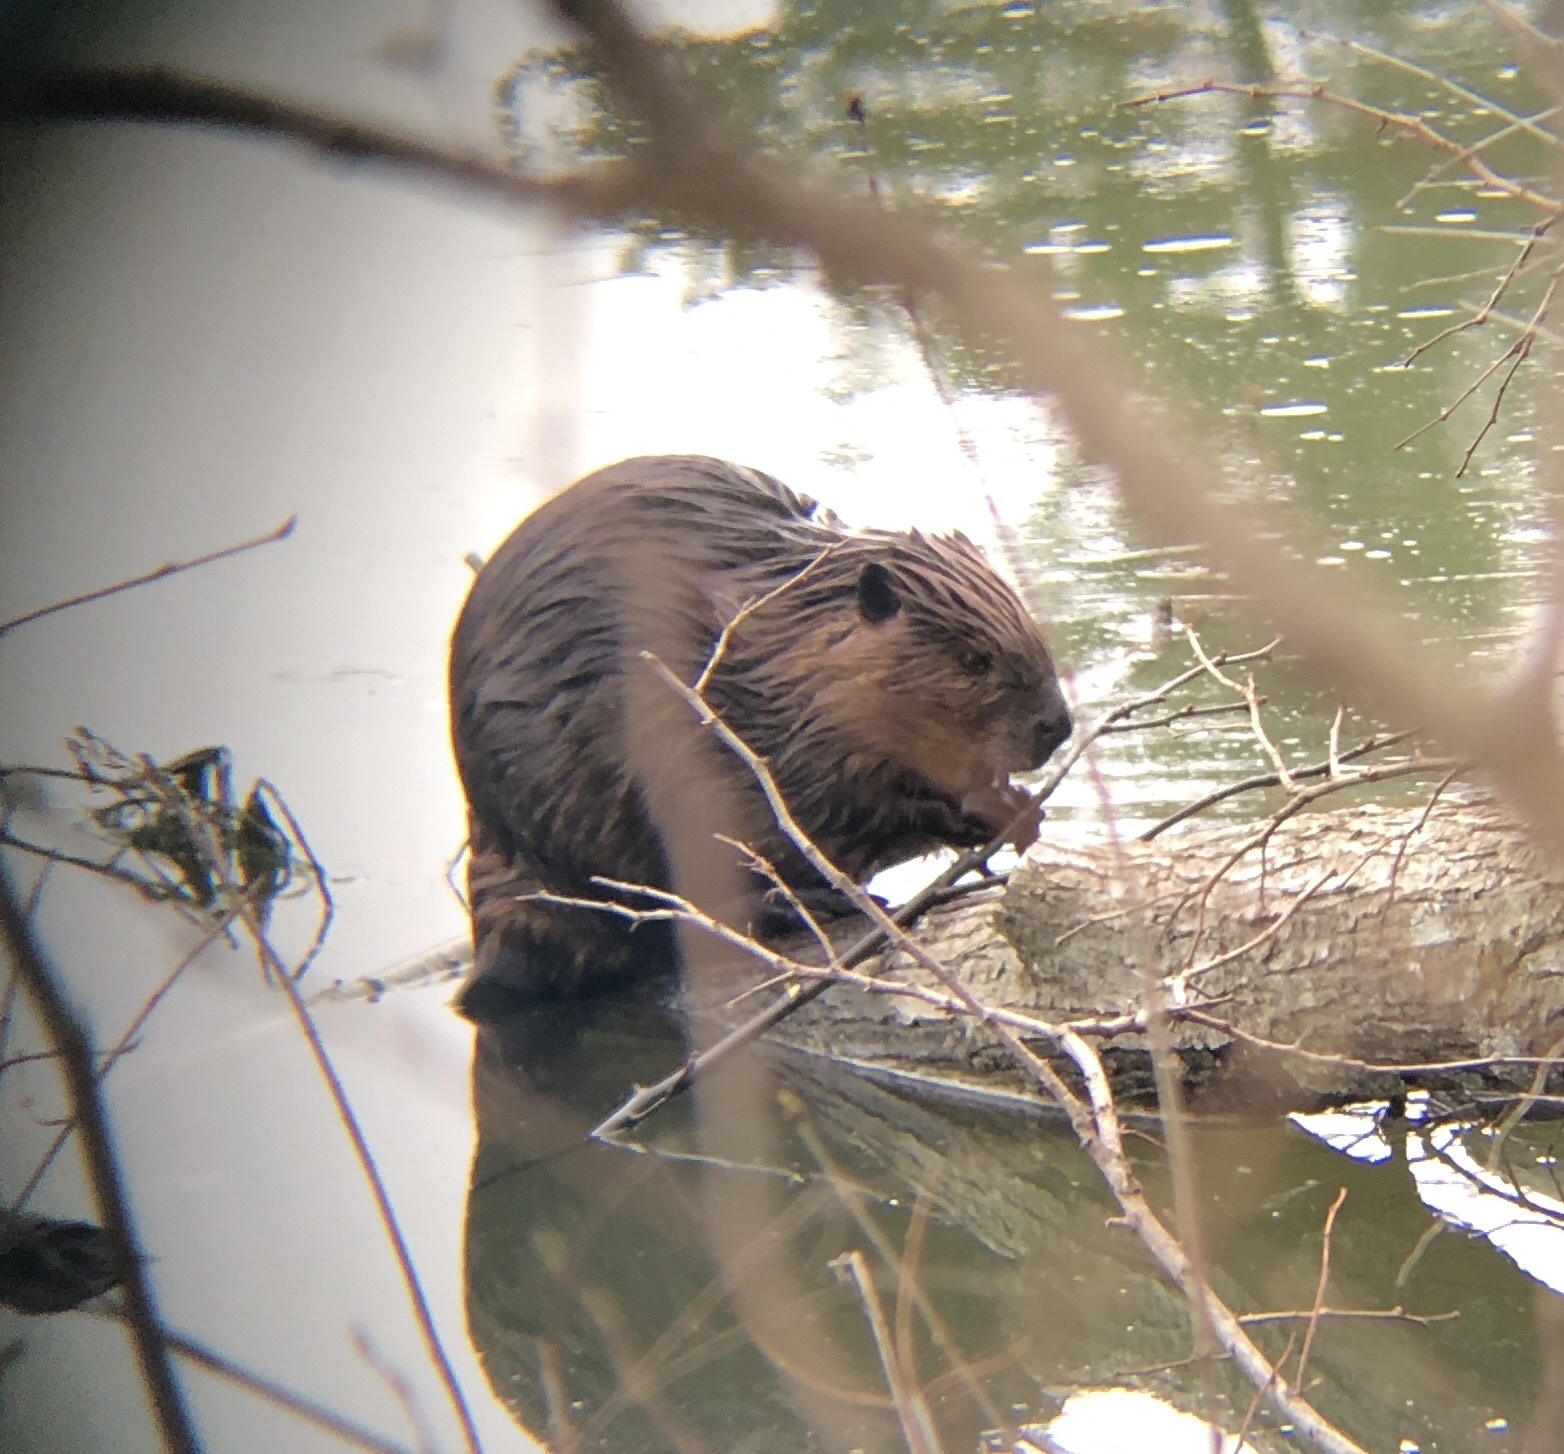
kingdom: Animalia
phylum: Chordata
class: Mammalia
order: Rodentia
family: Castoridae
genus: Castor
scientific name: Castor canadensis
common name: American beaver
